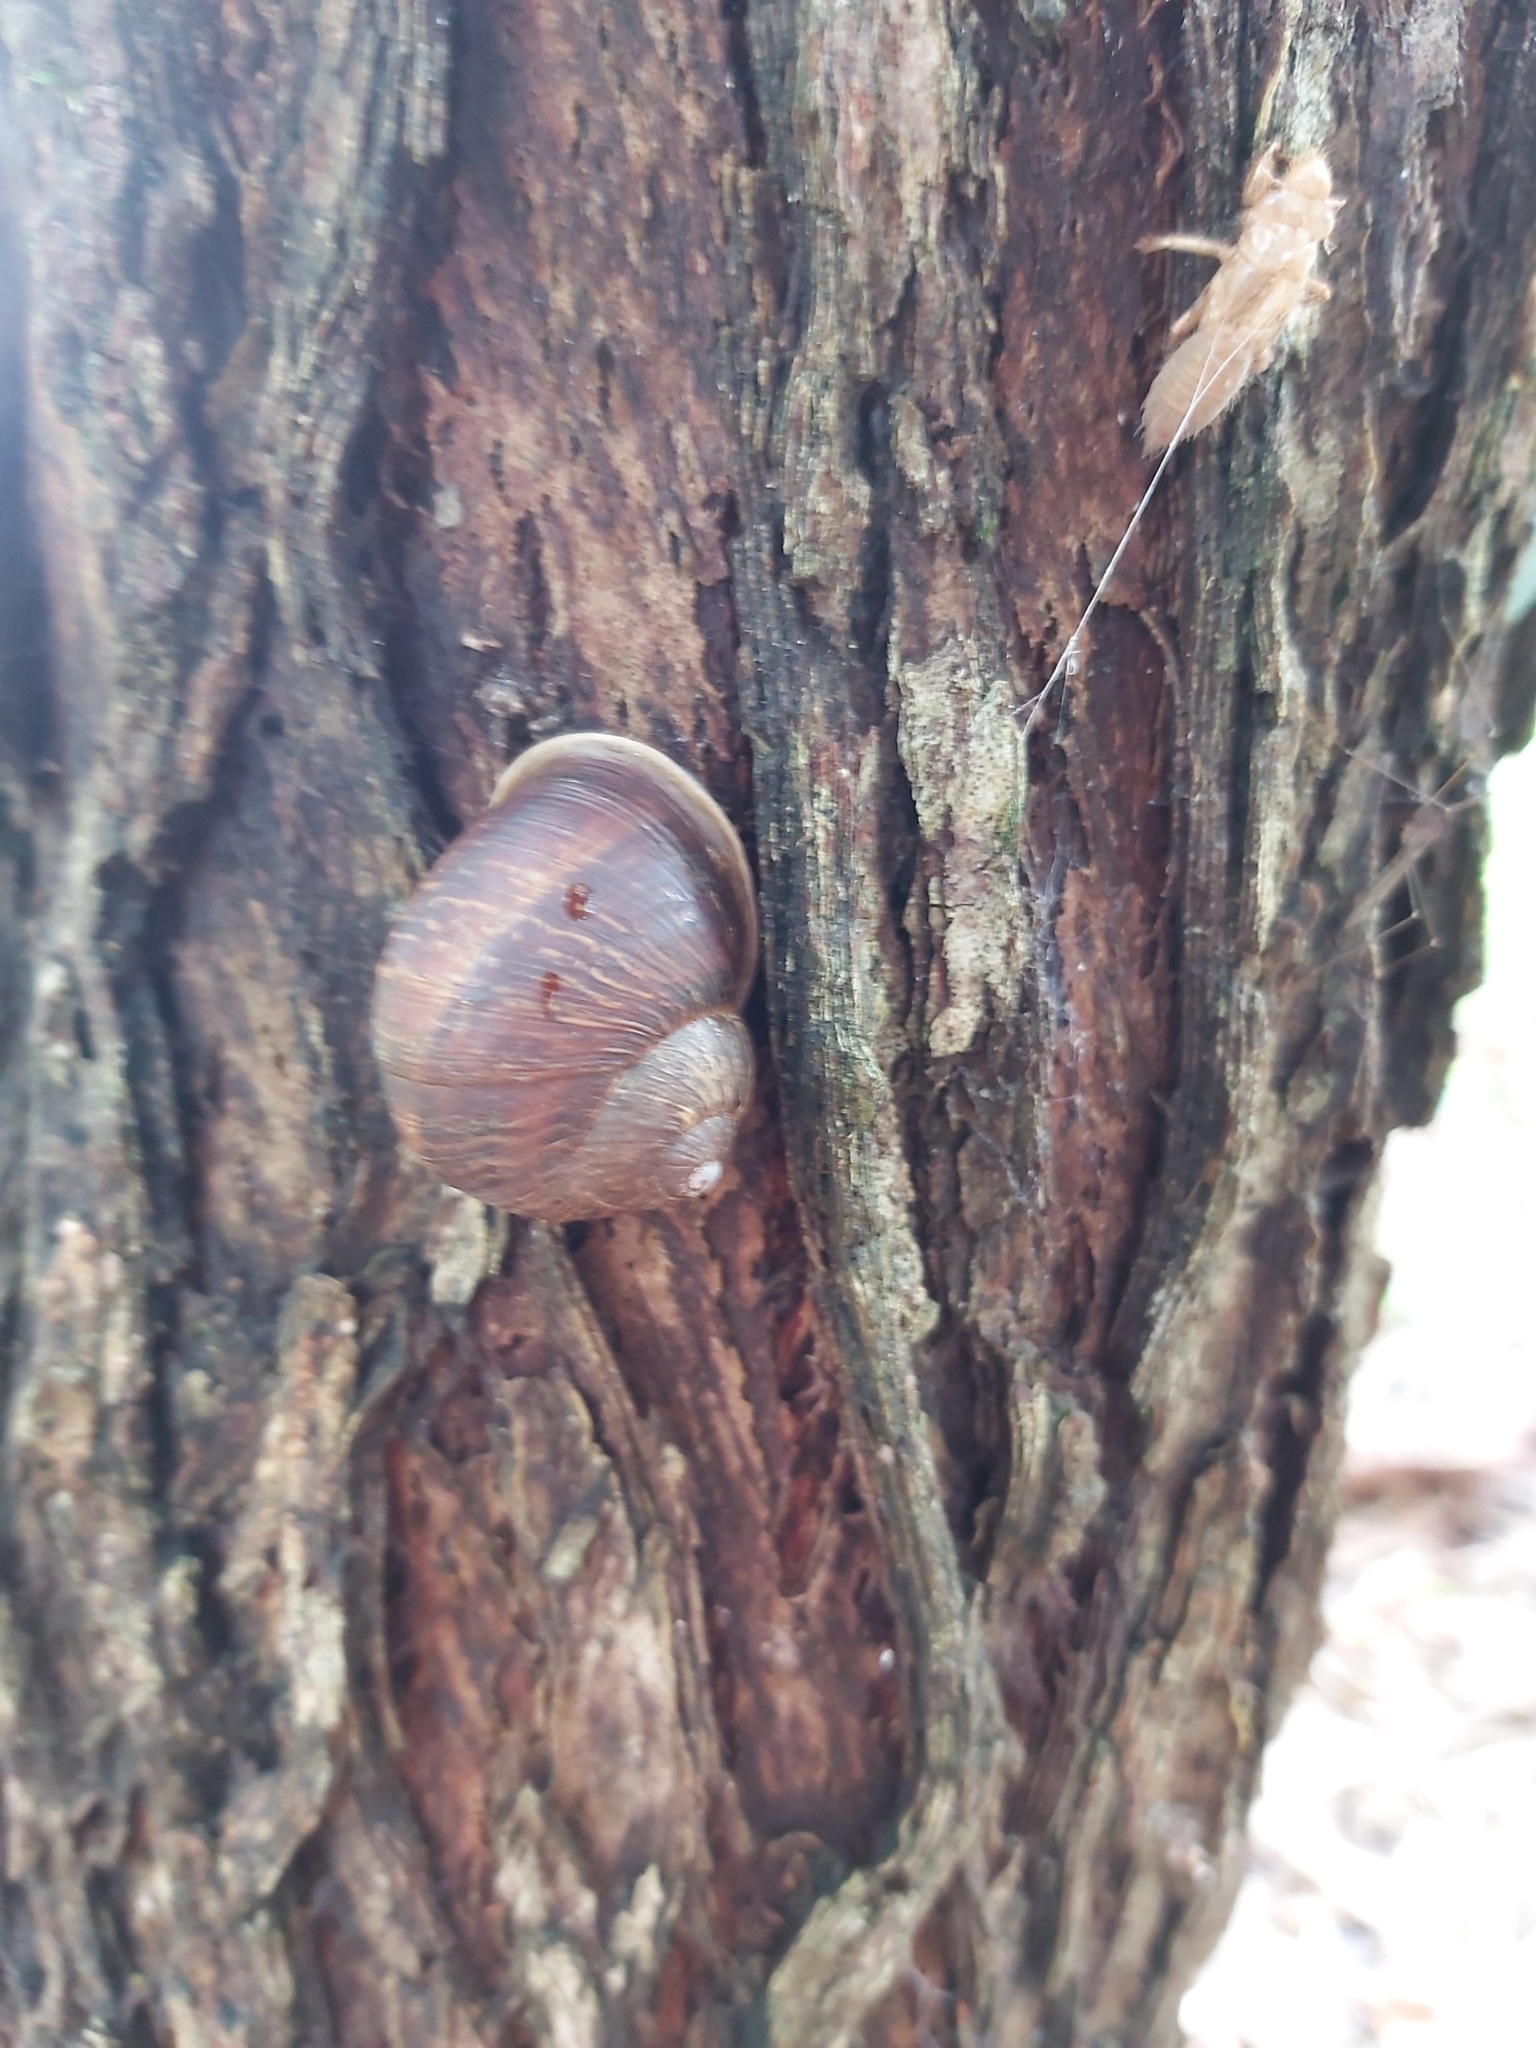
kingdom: Animalia
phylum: Mollusca
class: Gastropoda
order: Stylommatophora
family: Helicidae
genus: Cornu
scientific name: Cornu aspersum
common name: Brown garden snail
